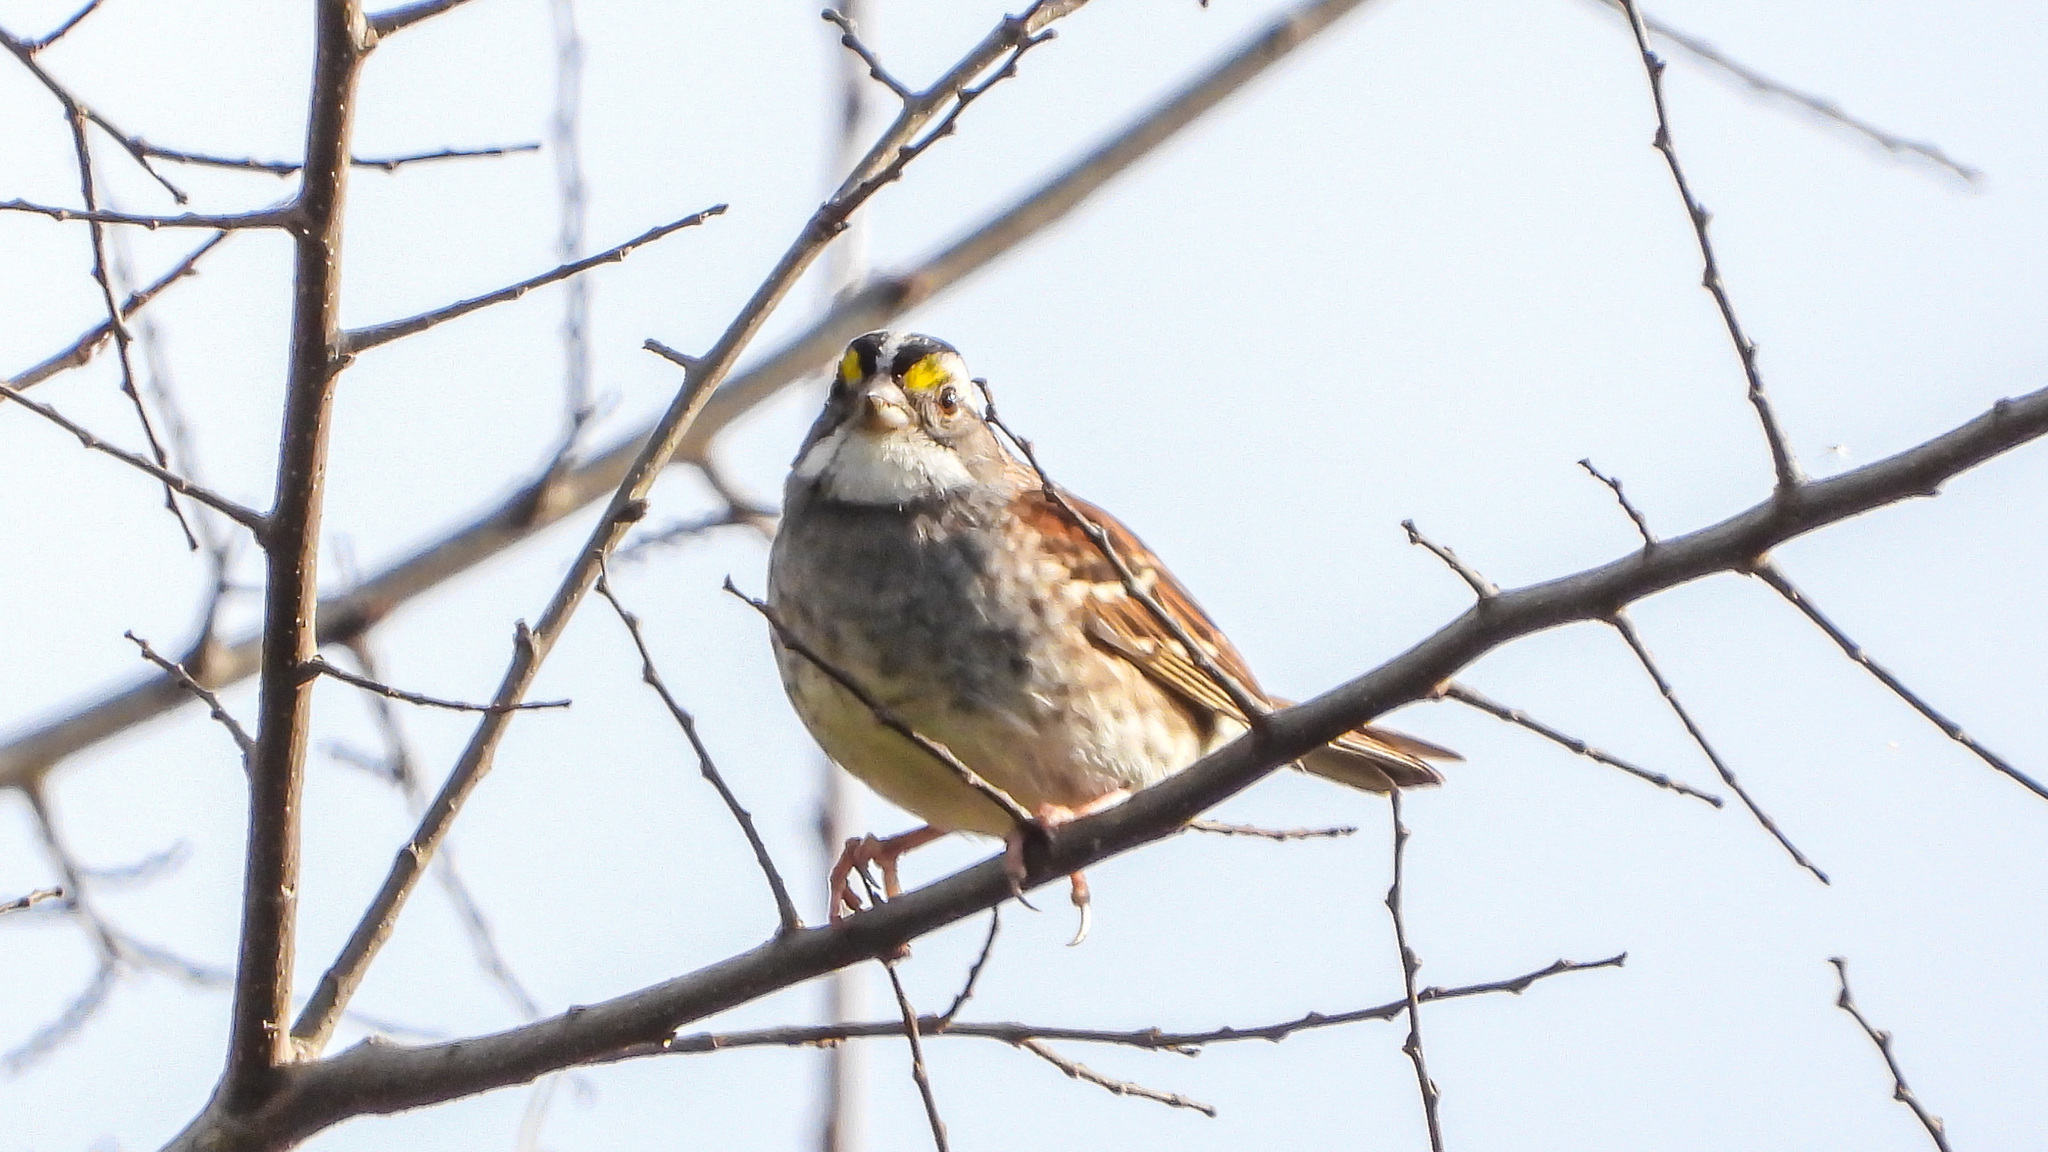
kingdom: Animalia
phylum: Chordata
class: Aves
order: Passeriformes
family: Passerellidae
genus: Zonotrichia
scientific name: Zonotrichia albicollis
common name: White-throated sparrow
